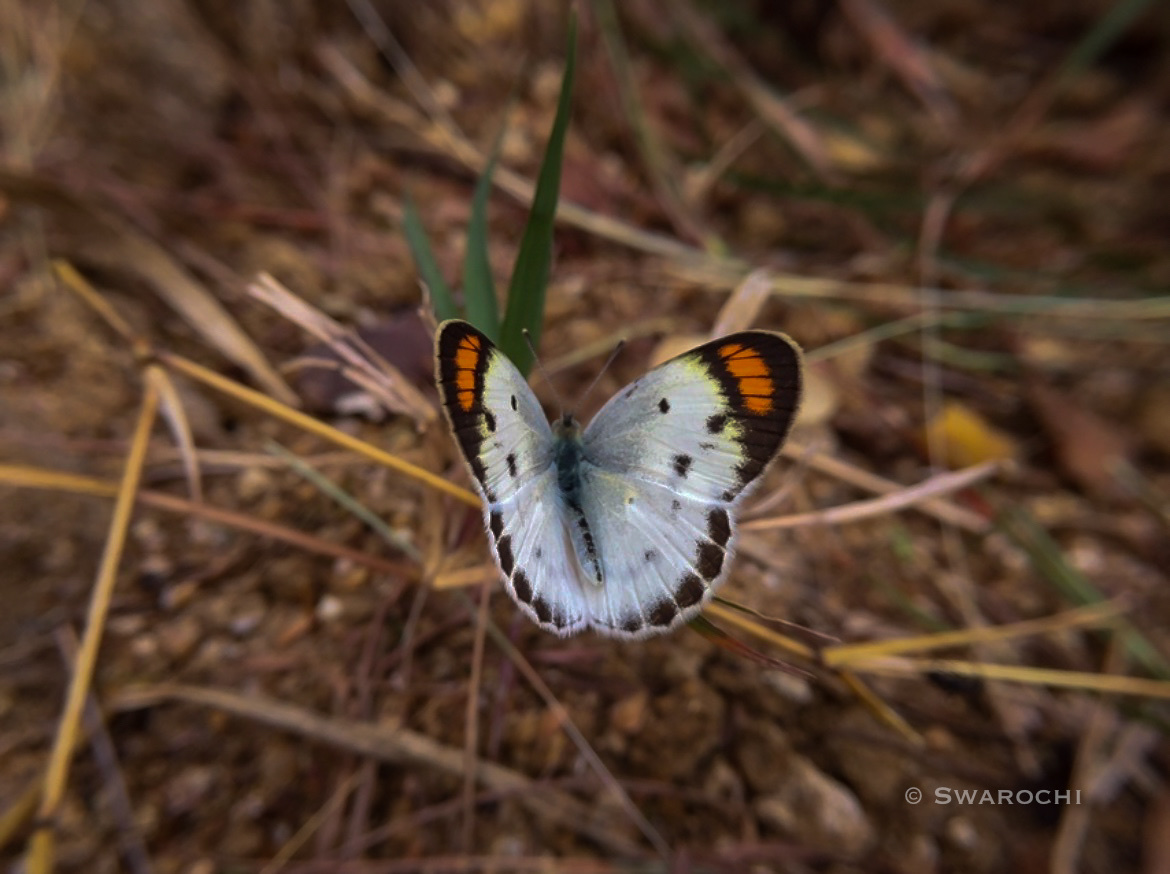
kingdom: Animalia
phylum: Arthropoda
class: Insecta
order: Lepidoptera
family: Pieridae
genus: Colotis
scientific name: Colotis etrida
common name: Little orange tip
